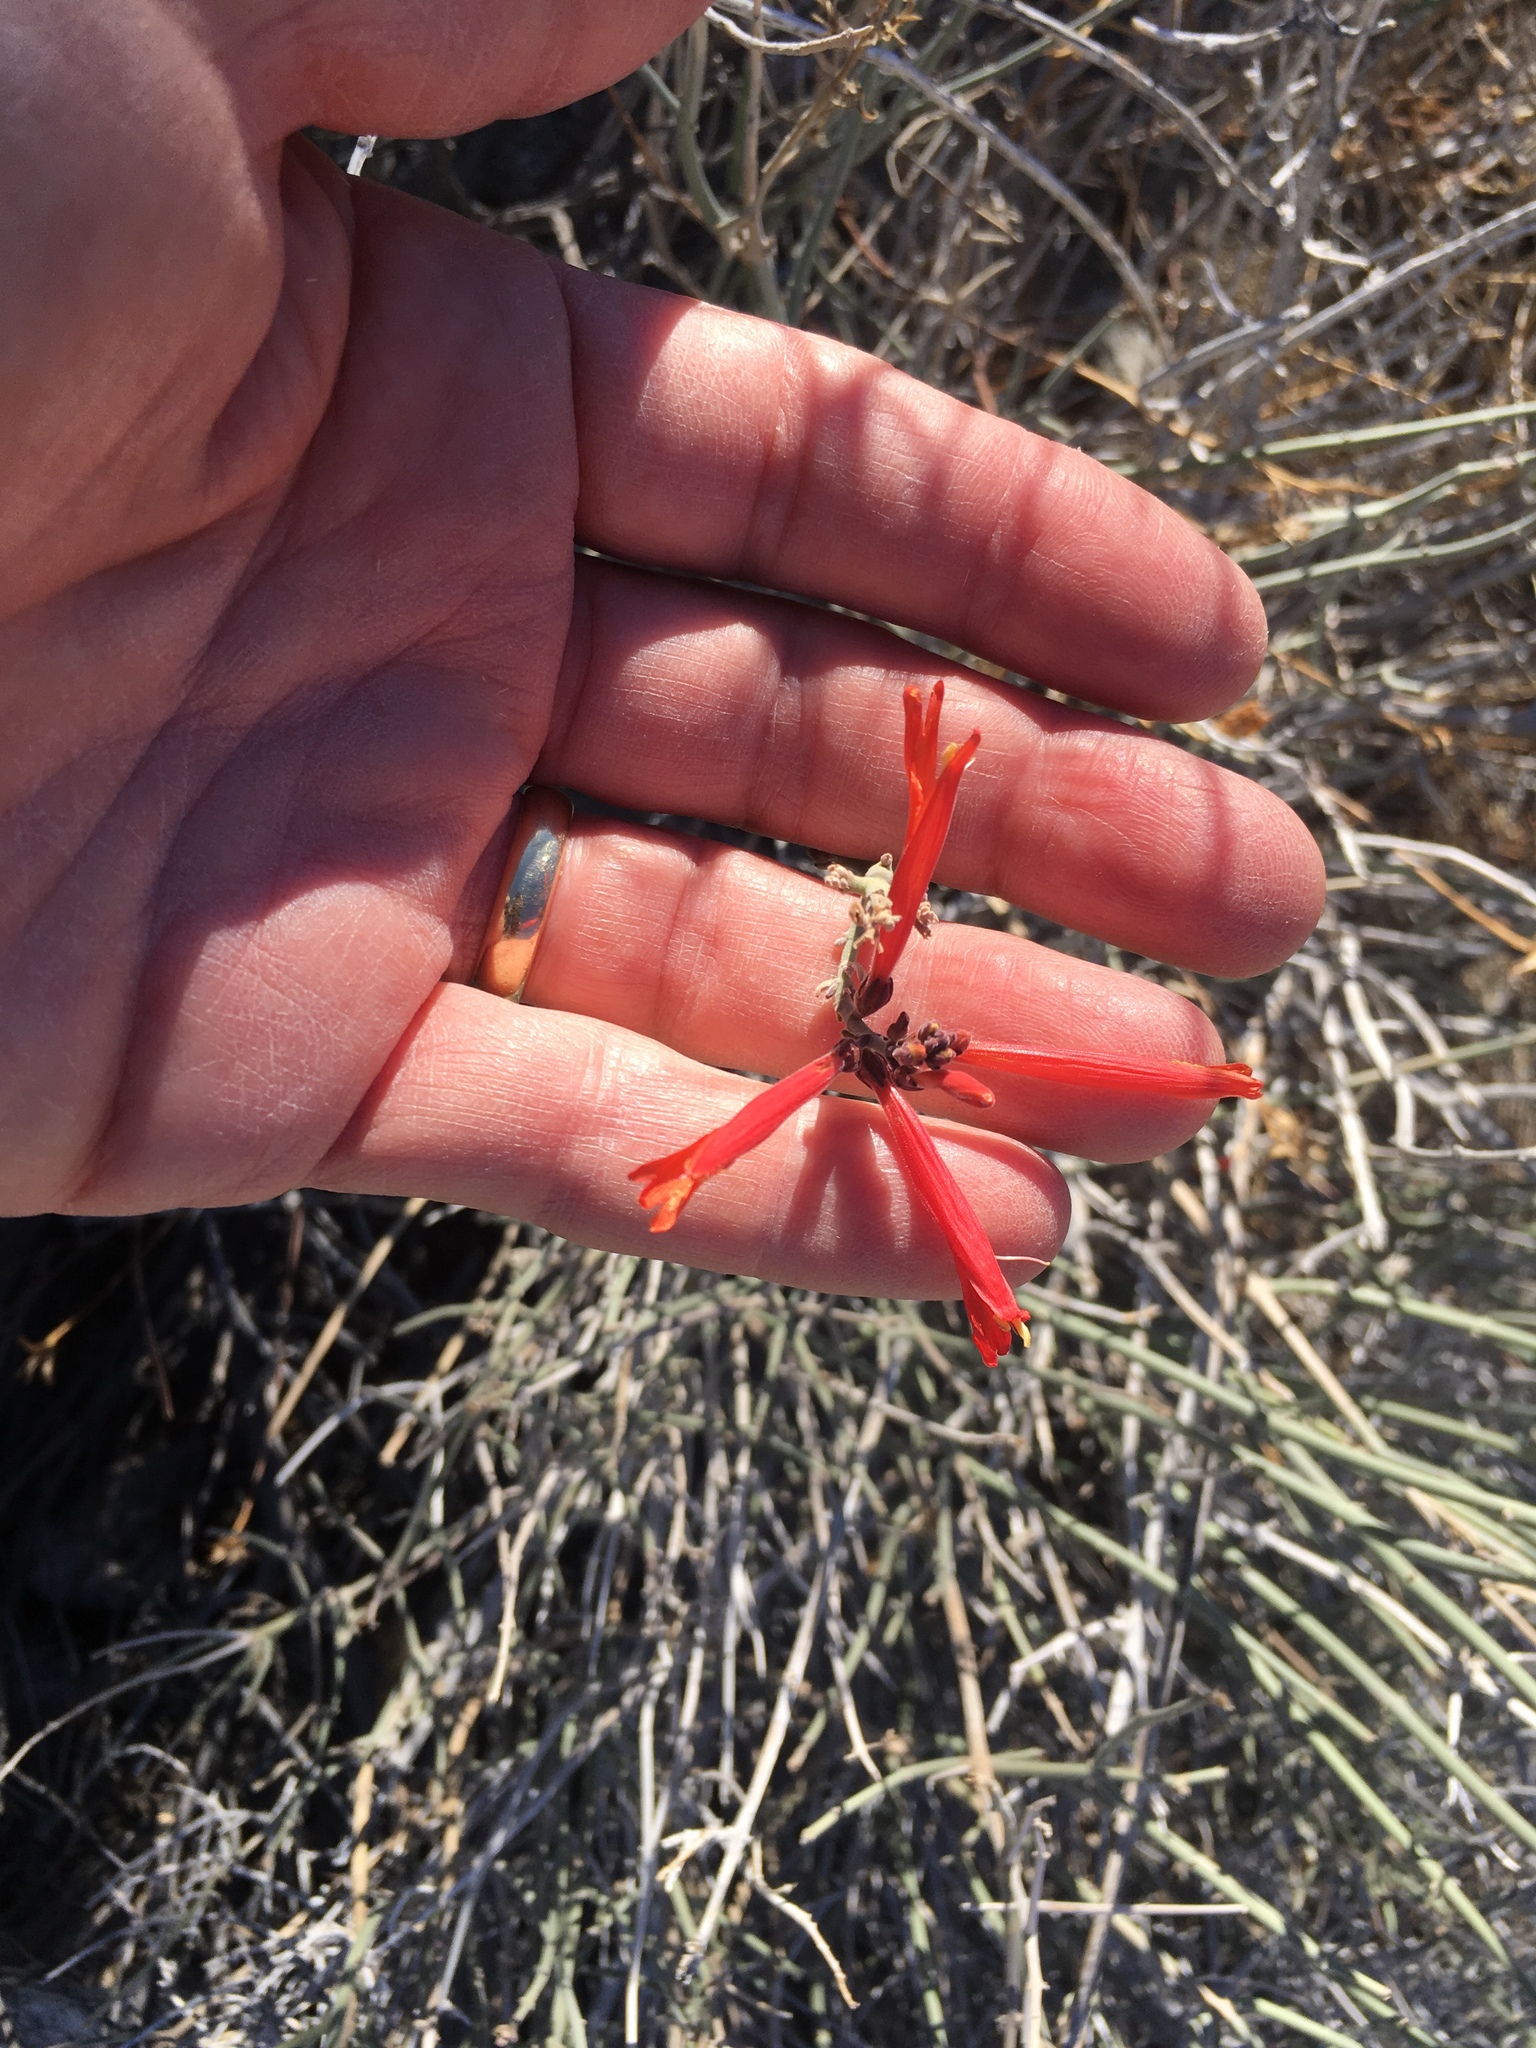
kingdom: Plantae
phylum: Tracheophyta
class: Magnoliopsida
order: Lamiales
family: Acanthaceae
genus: Justicia
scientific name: Justicia californica
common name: Chuparosa-honeysuckle
